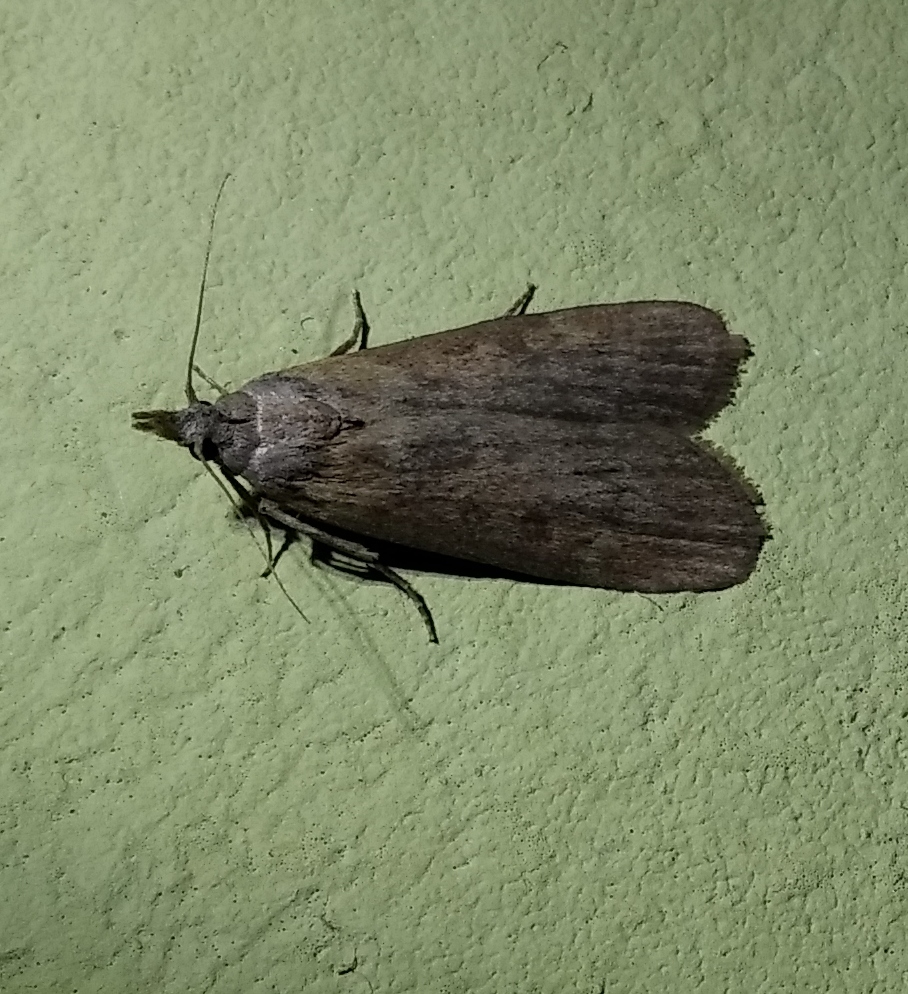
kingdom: Animalia
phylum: Arthropoda
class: Insecta
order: Lepidoptera
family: Pyralidae
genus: Lamoria
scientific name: Lamoria anella
